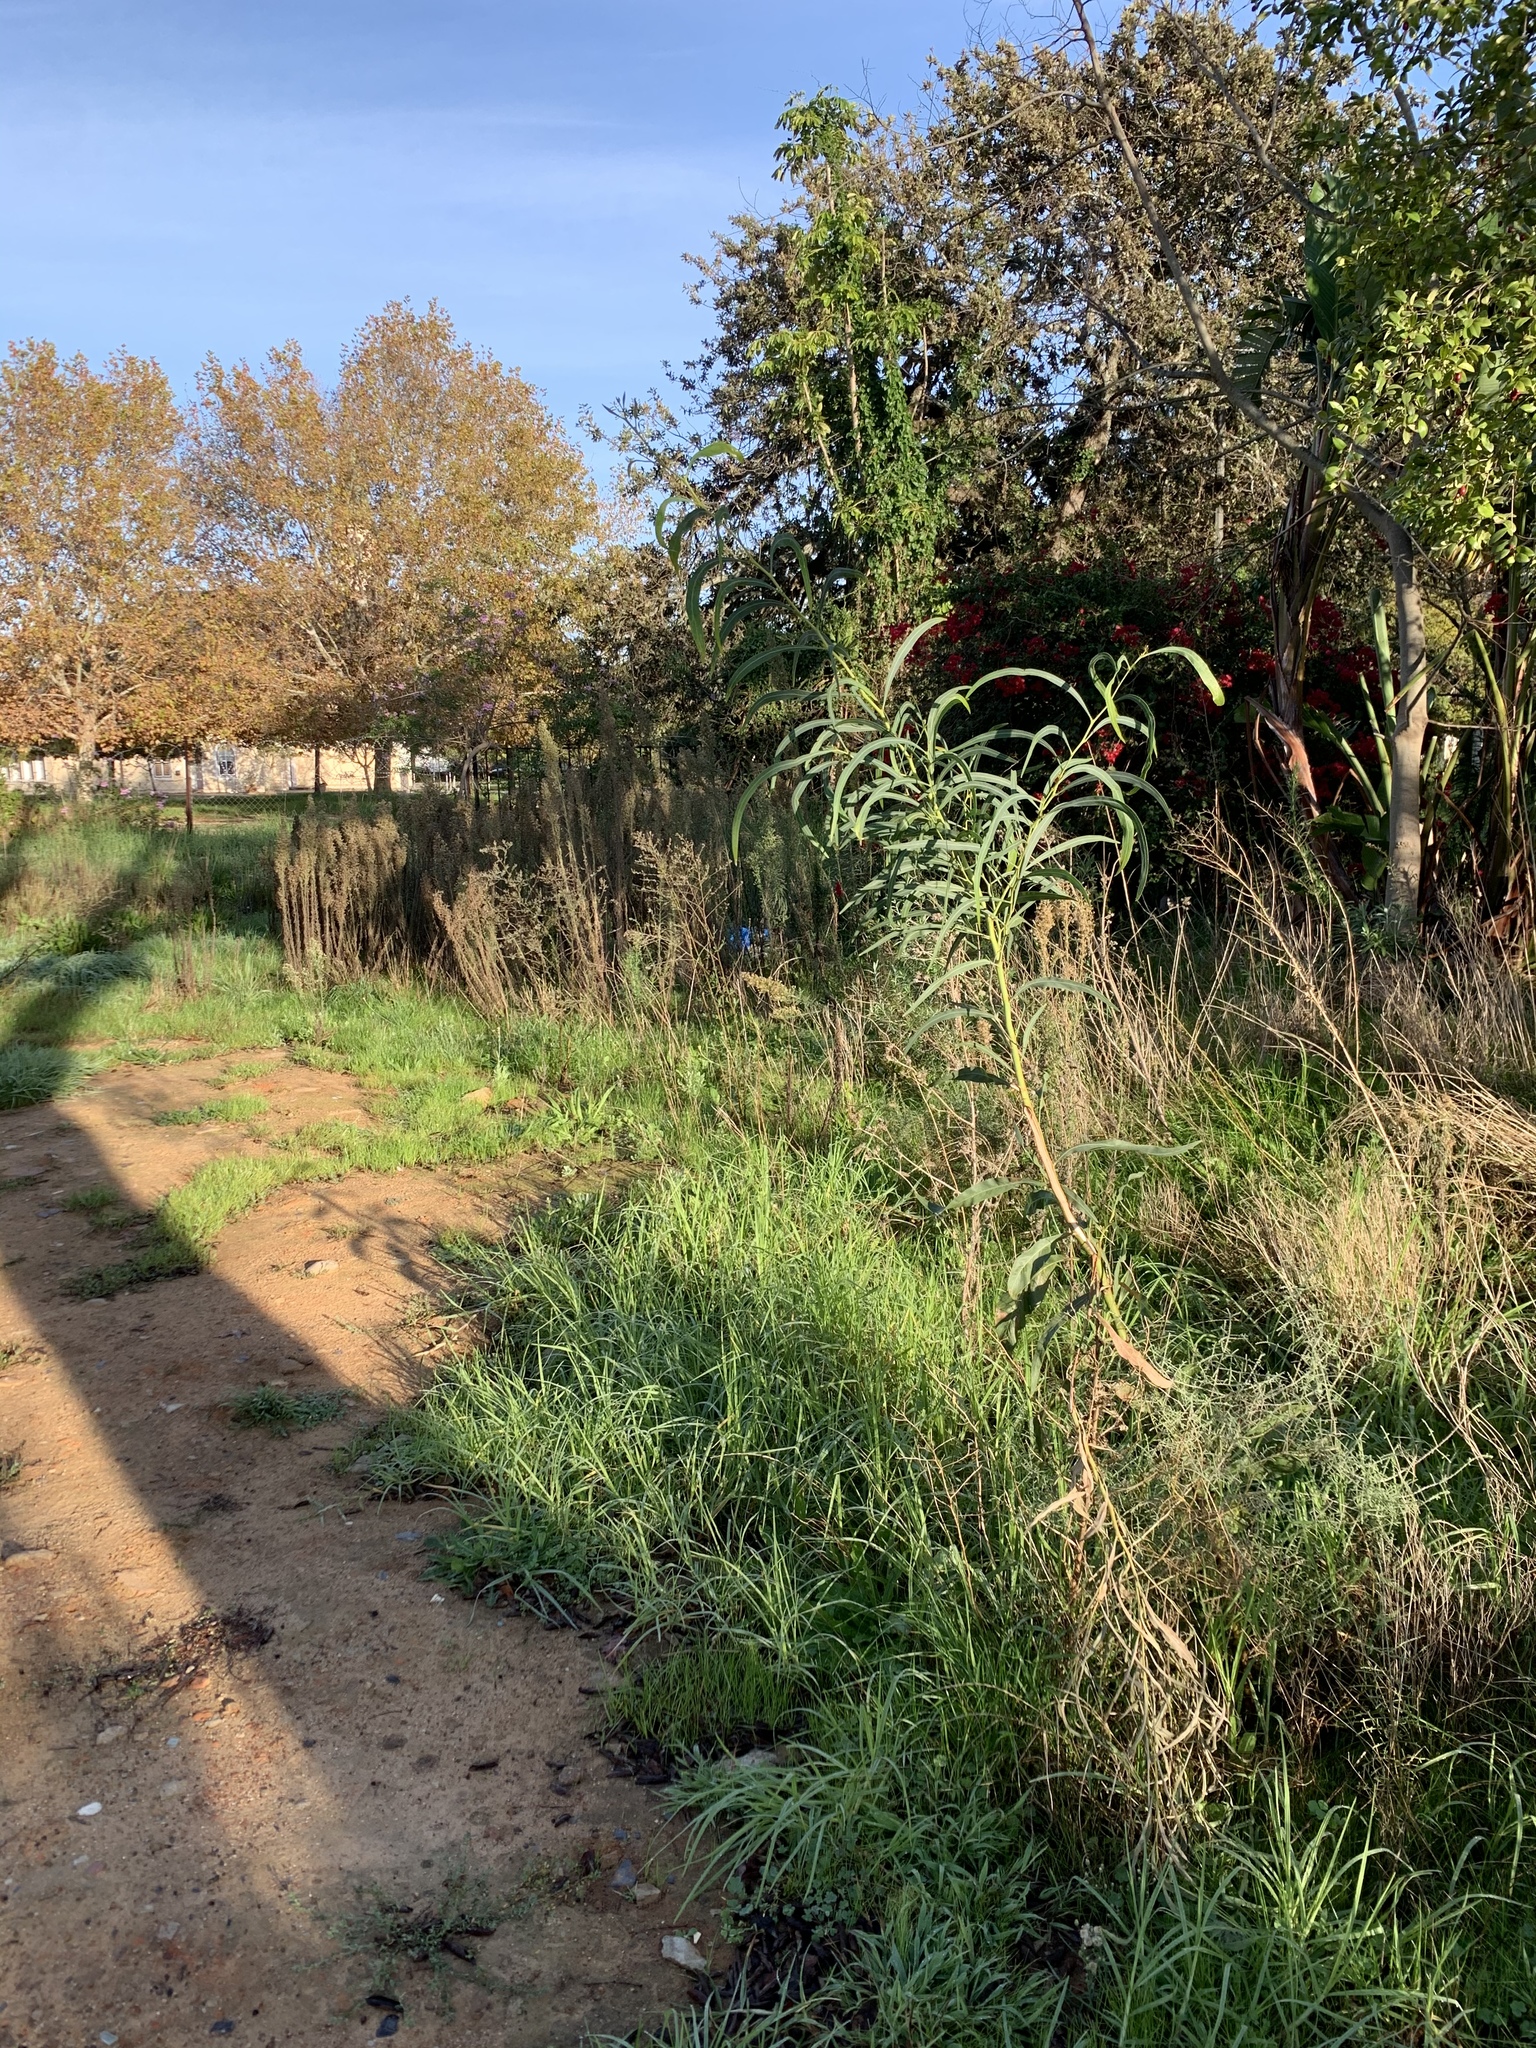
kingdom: Plantae
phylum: Tracheophyta
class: Magnoliopsida
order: Fabales
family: Fabaceae
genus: Acacia
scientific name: Acacia saligna
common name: Orange wattle
